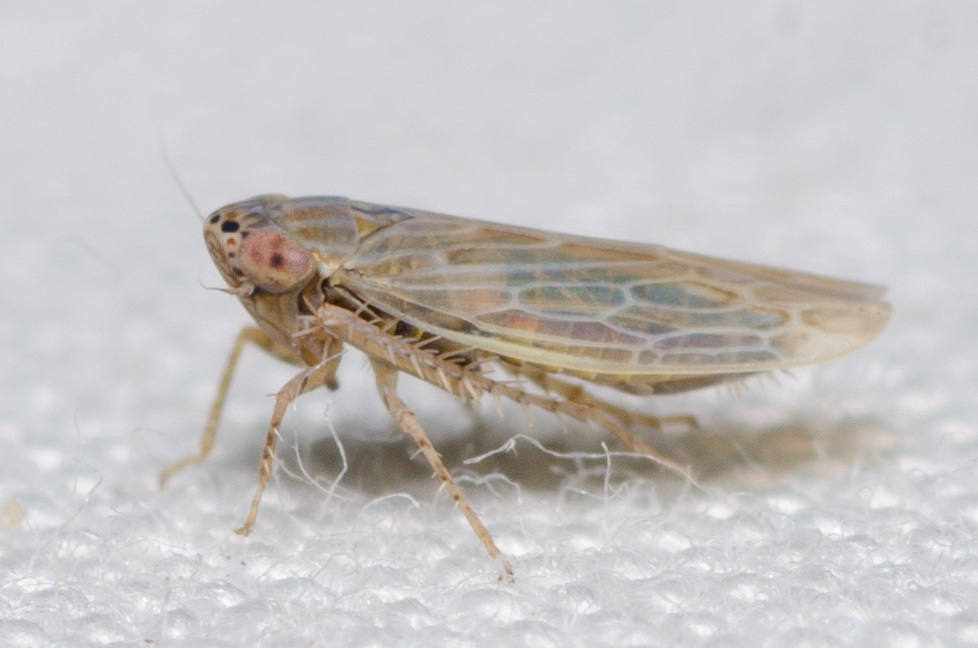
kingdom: Animalia
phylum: Arthropoda
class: Insecta
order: Hemiptera
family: Cicadellidae
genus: Graminella
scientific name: Graminella sonora
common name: Lesser lawn leafhopper
